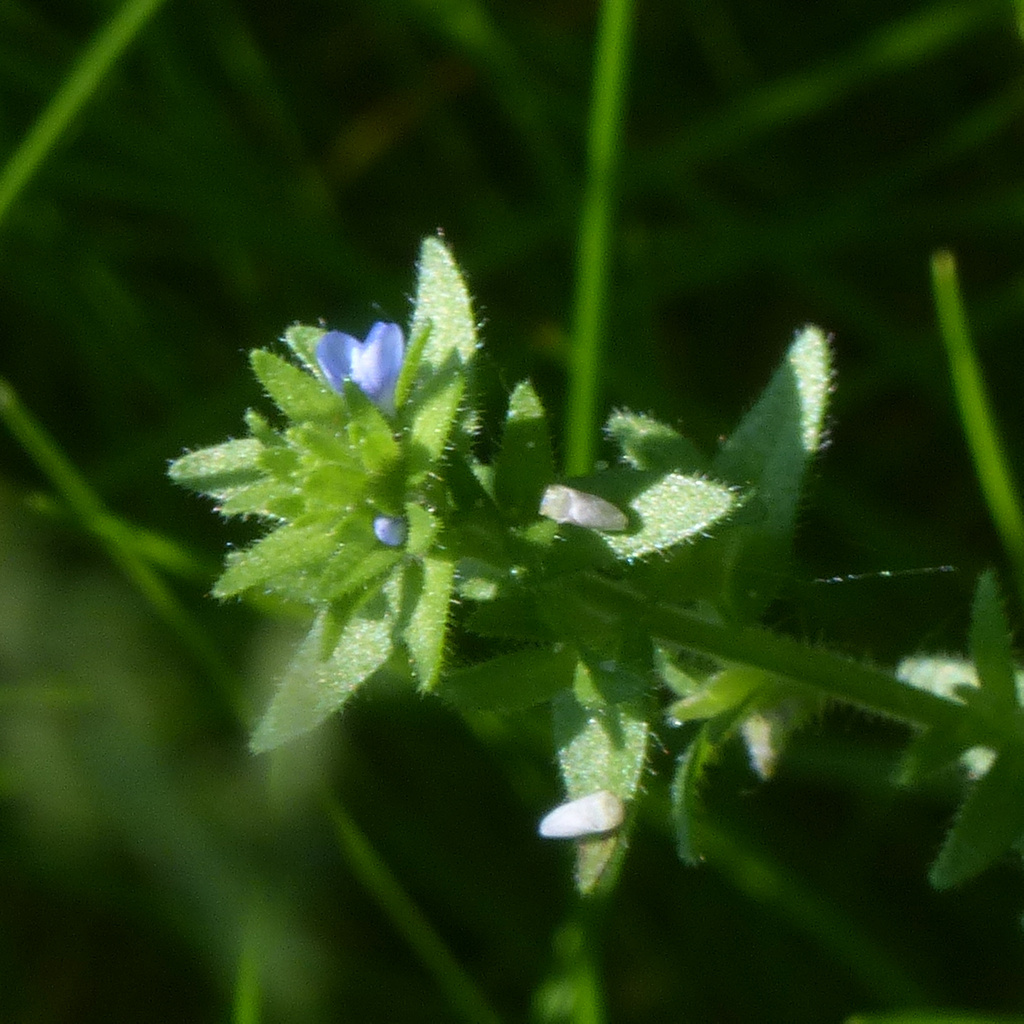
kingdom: Plantae
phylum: Tracheophyta
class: Magnoliopsida
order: Lamiales
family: Plantaginaceae
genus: Veronica
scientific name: Veronica arvensis
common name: Corn speedwell
